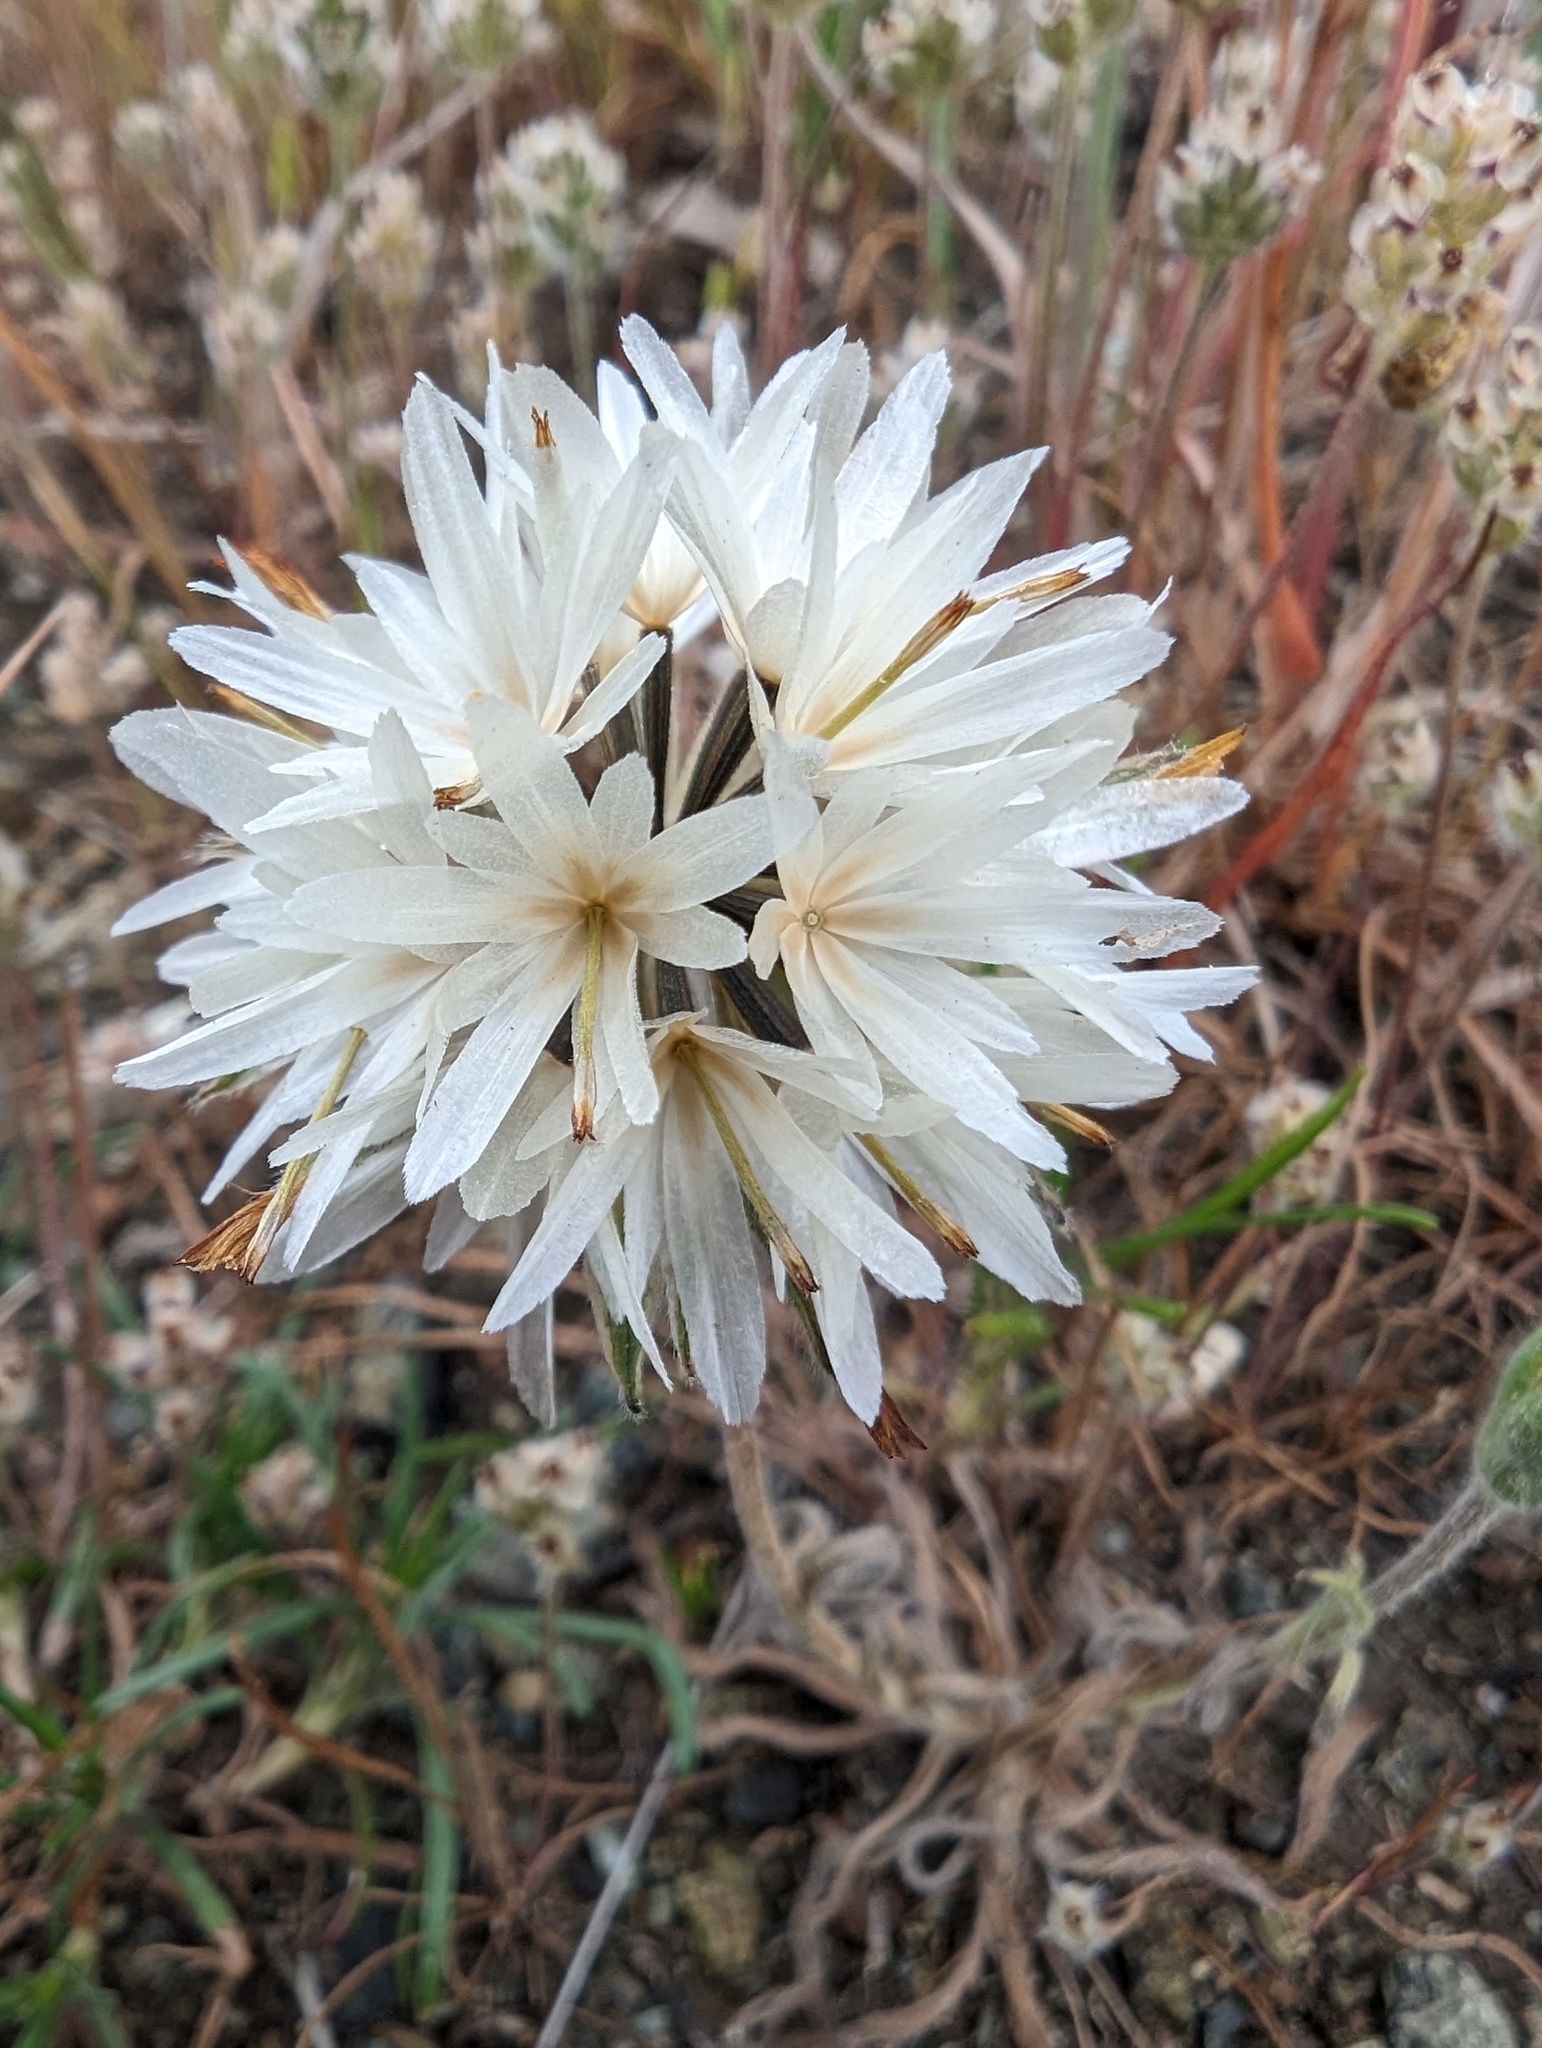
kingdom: Plantae
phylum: Tracheophyta
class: Magnoliopsida
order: Asterales
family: Asteraceae
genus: Achyrachaena
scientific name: Achyrachaena mollis
